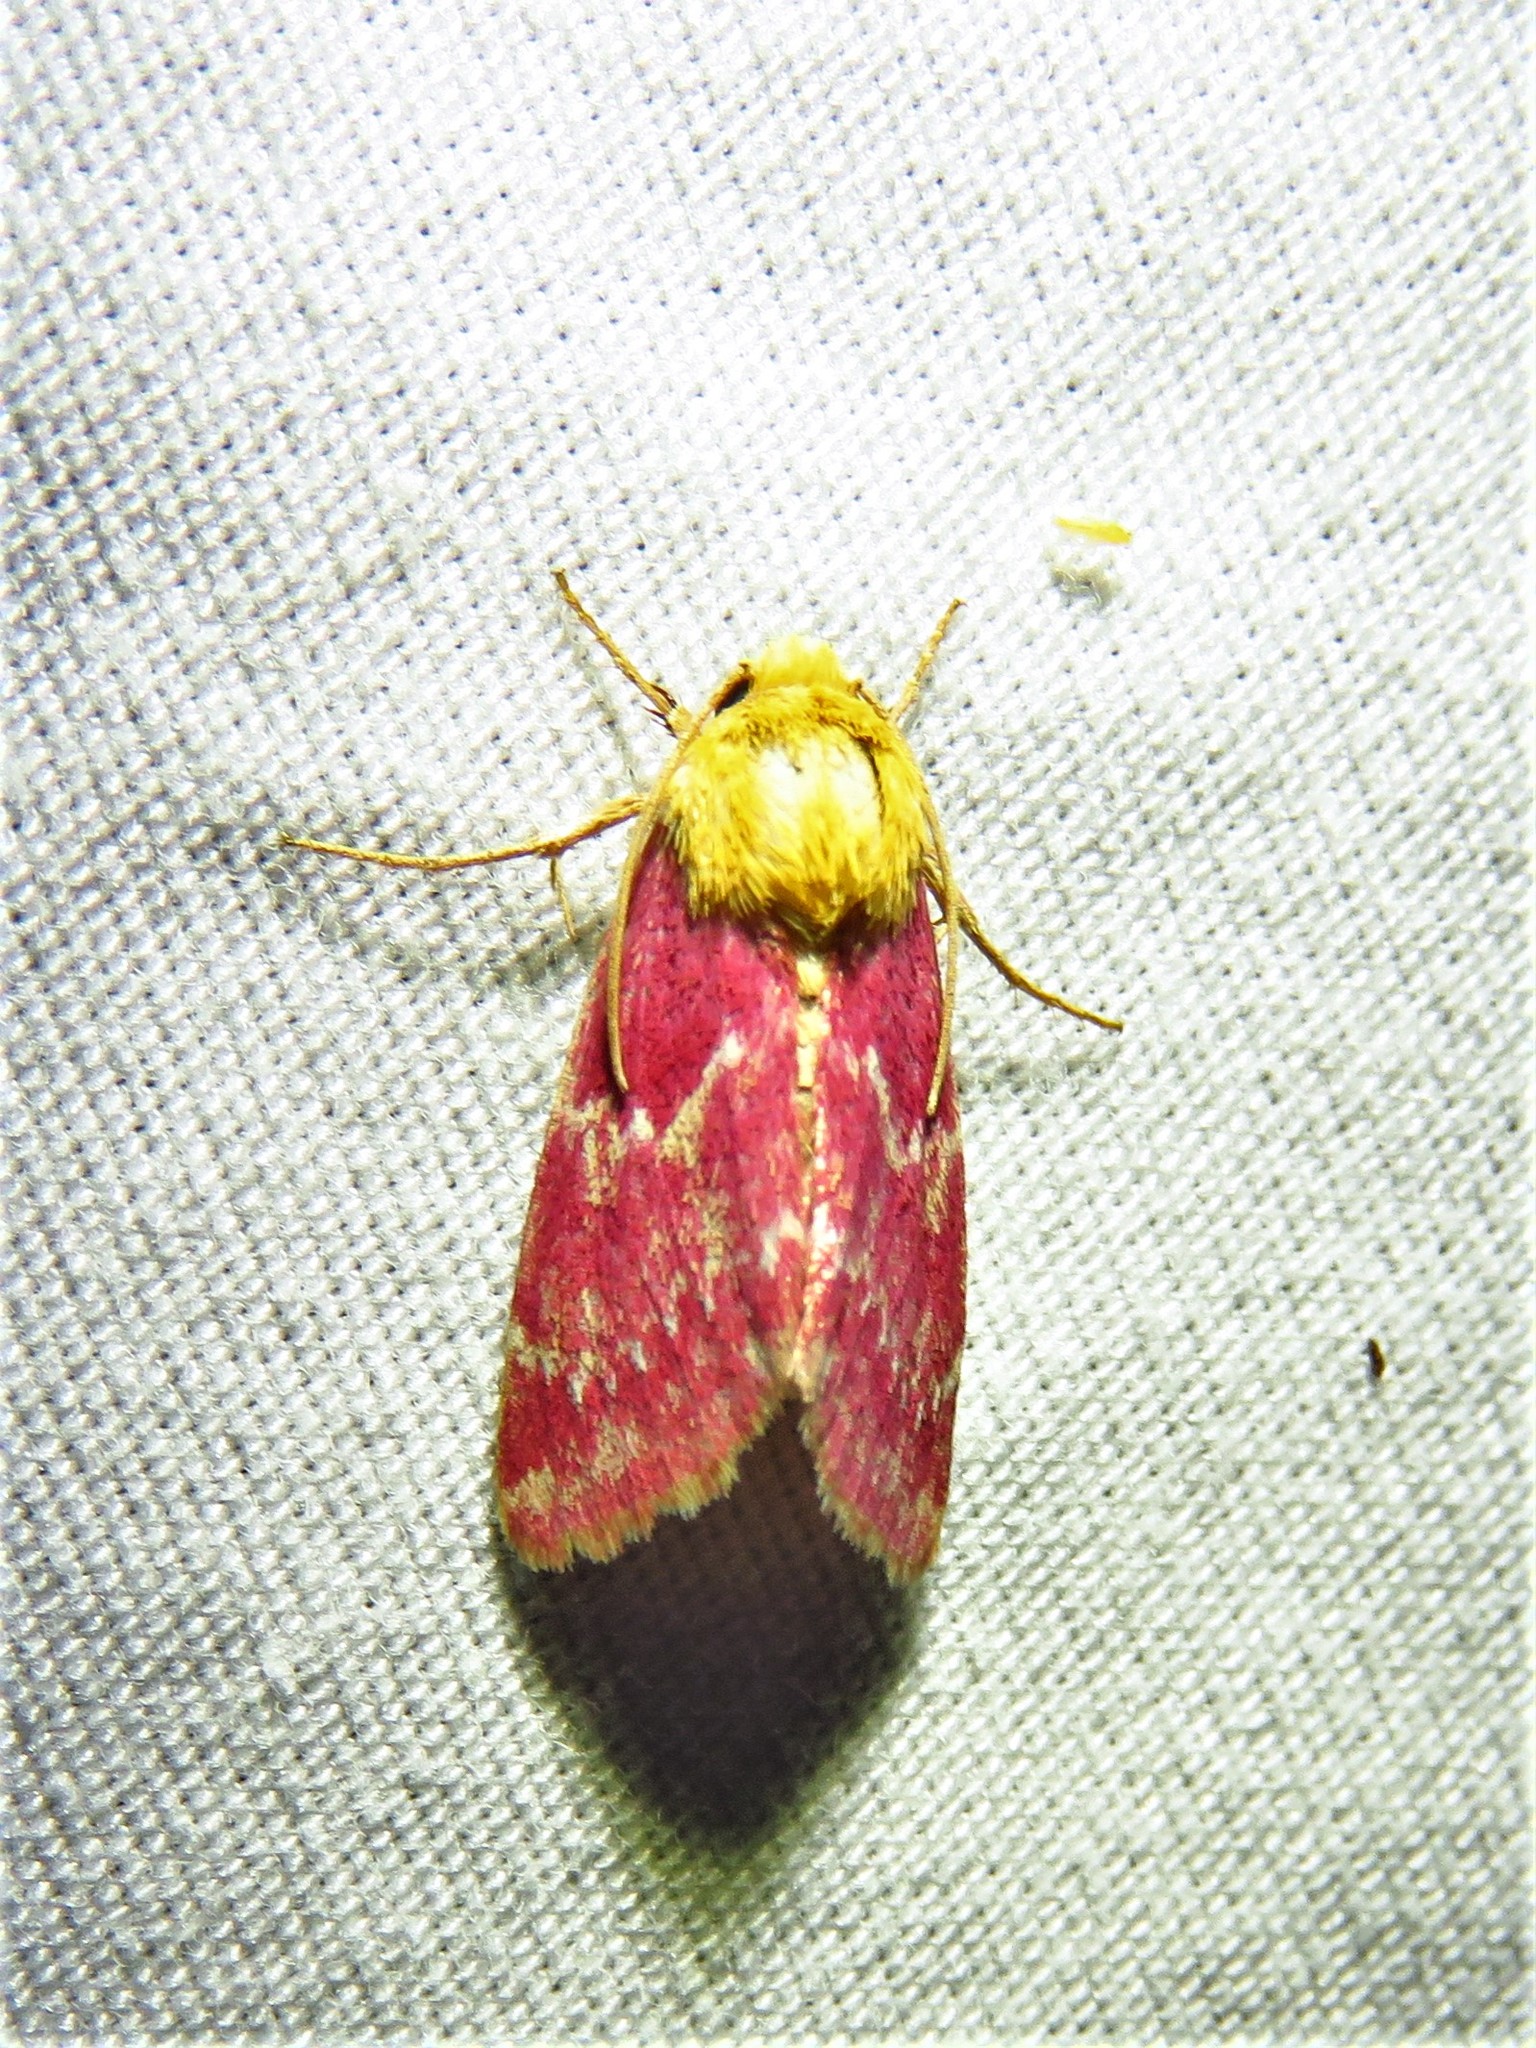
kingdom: Animalia
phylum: Arthropoda
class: Insecta
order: Lepidoptera
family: Noctuidae
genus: Schinia
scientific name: Schinia volupia
